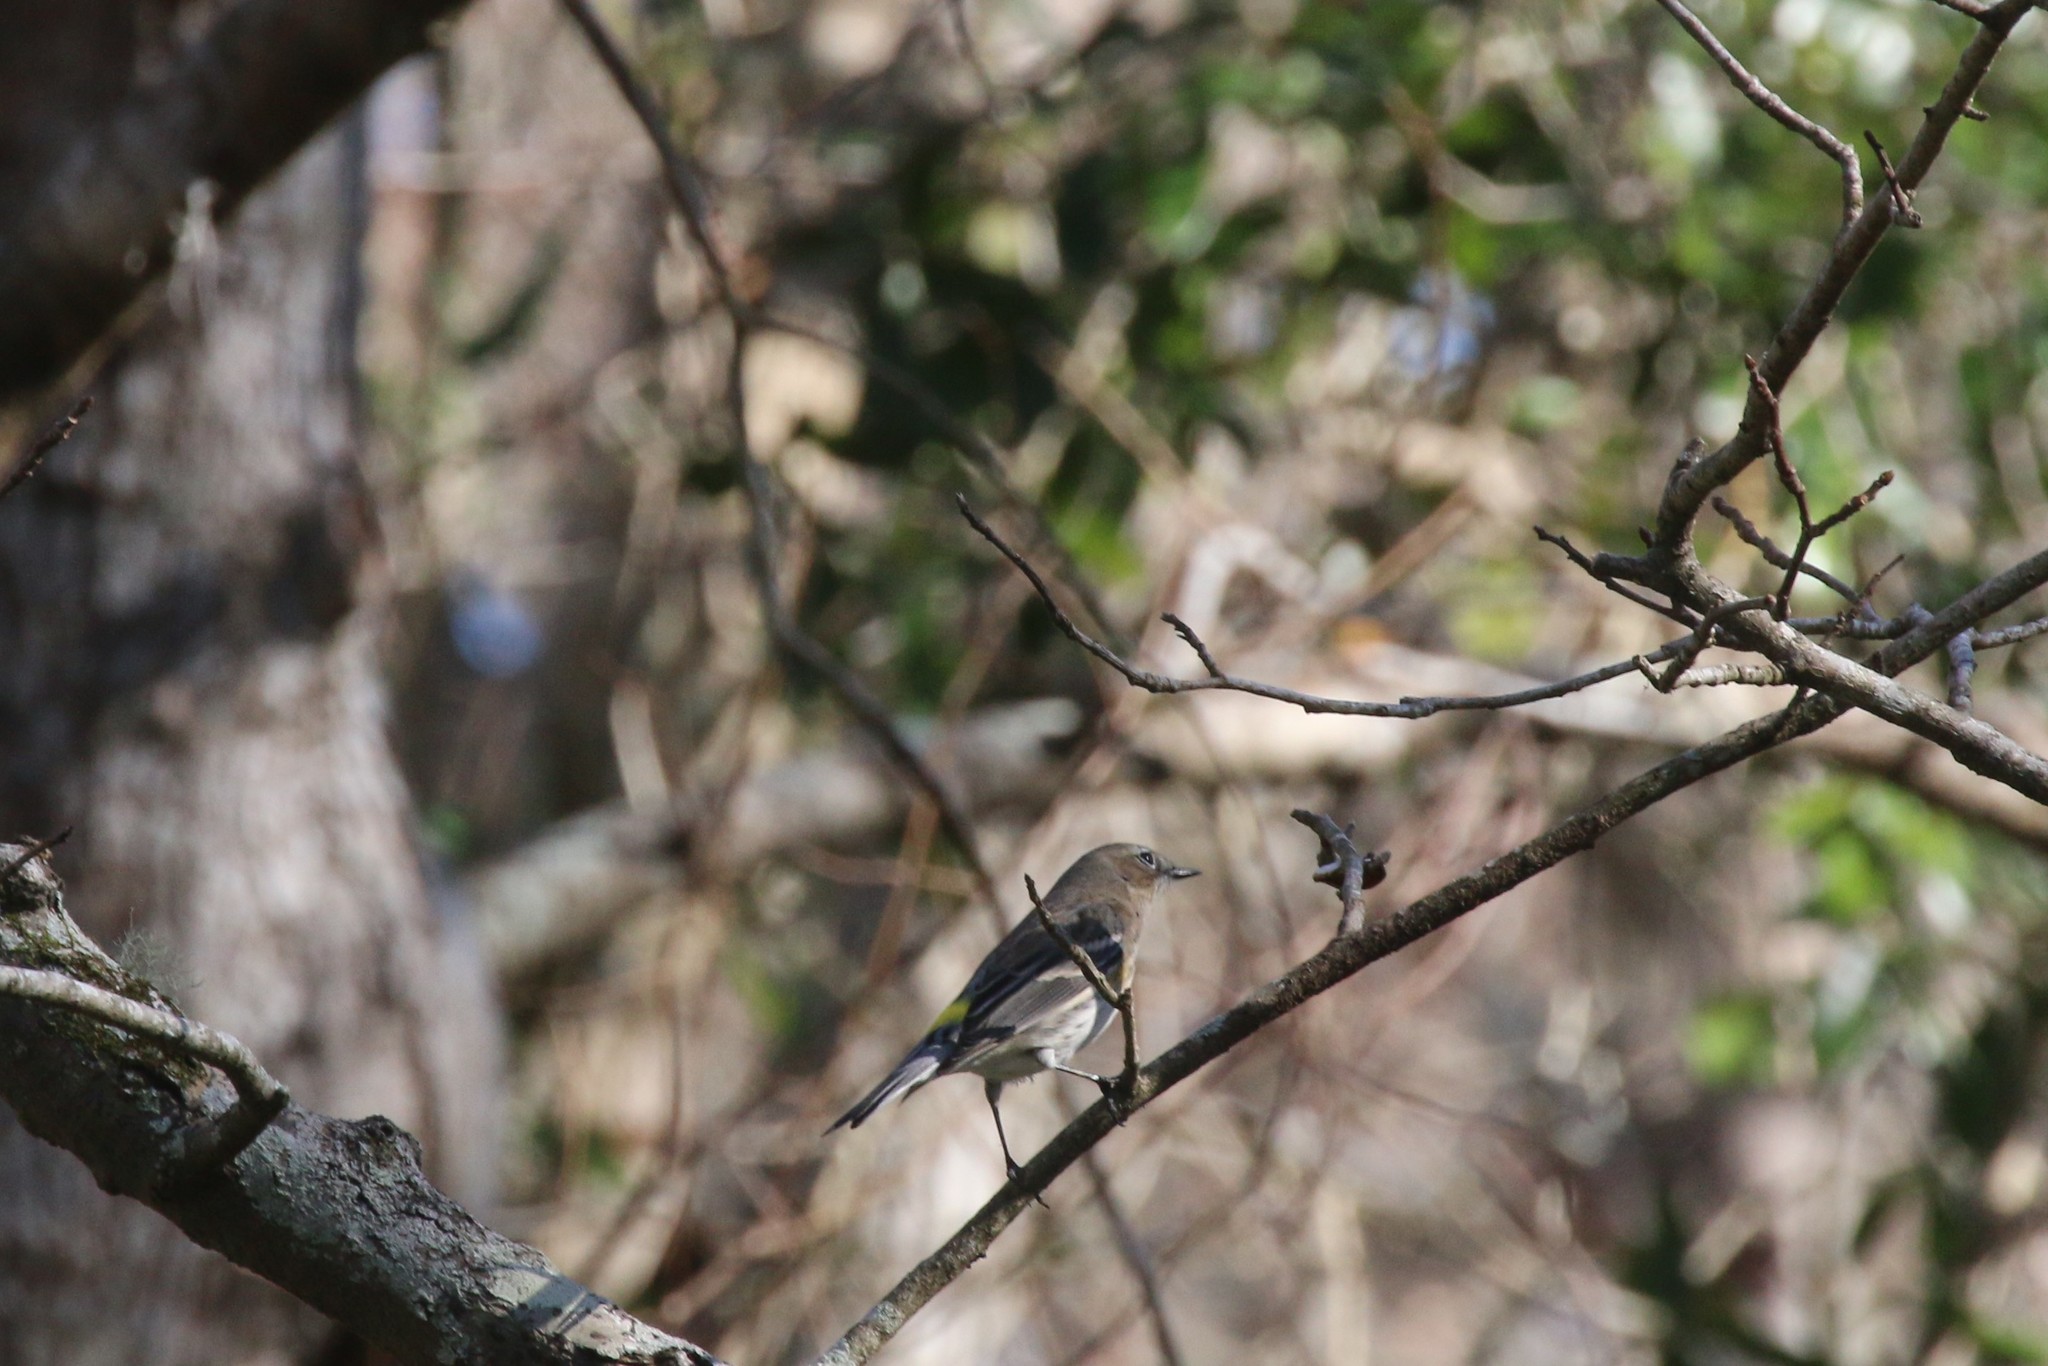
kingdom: Animalia
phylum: Chordata
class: Aves
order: Passeriformes
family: Parulidae
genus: Setophaga
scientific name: Setophaga coronata
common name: Myrtle warbler
